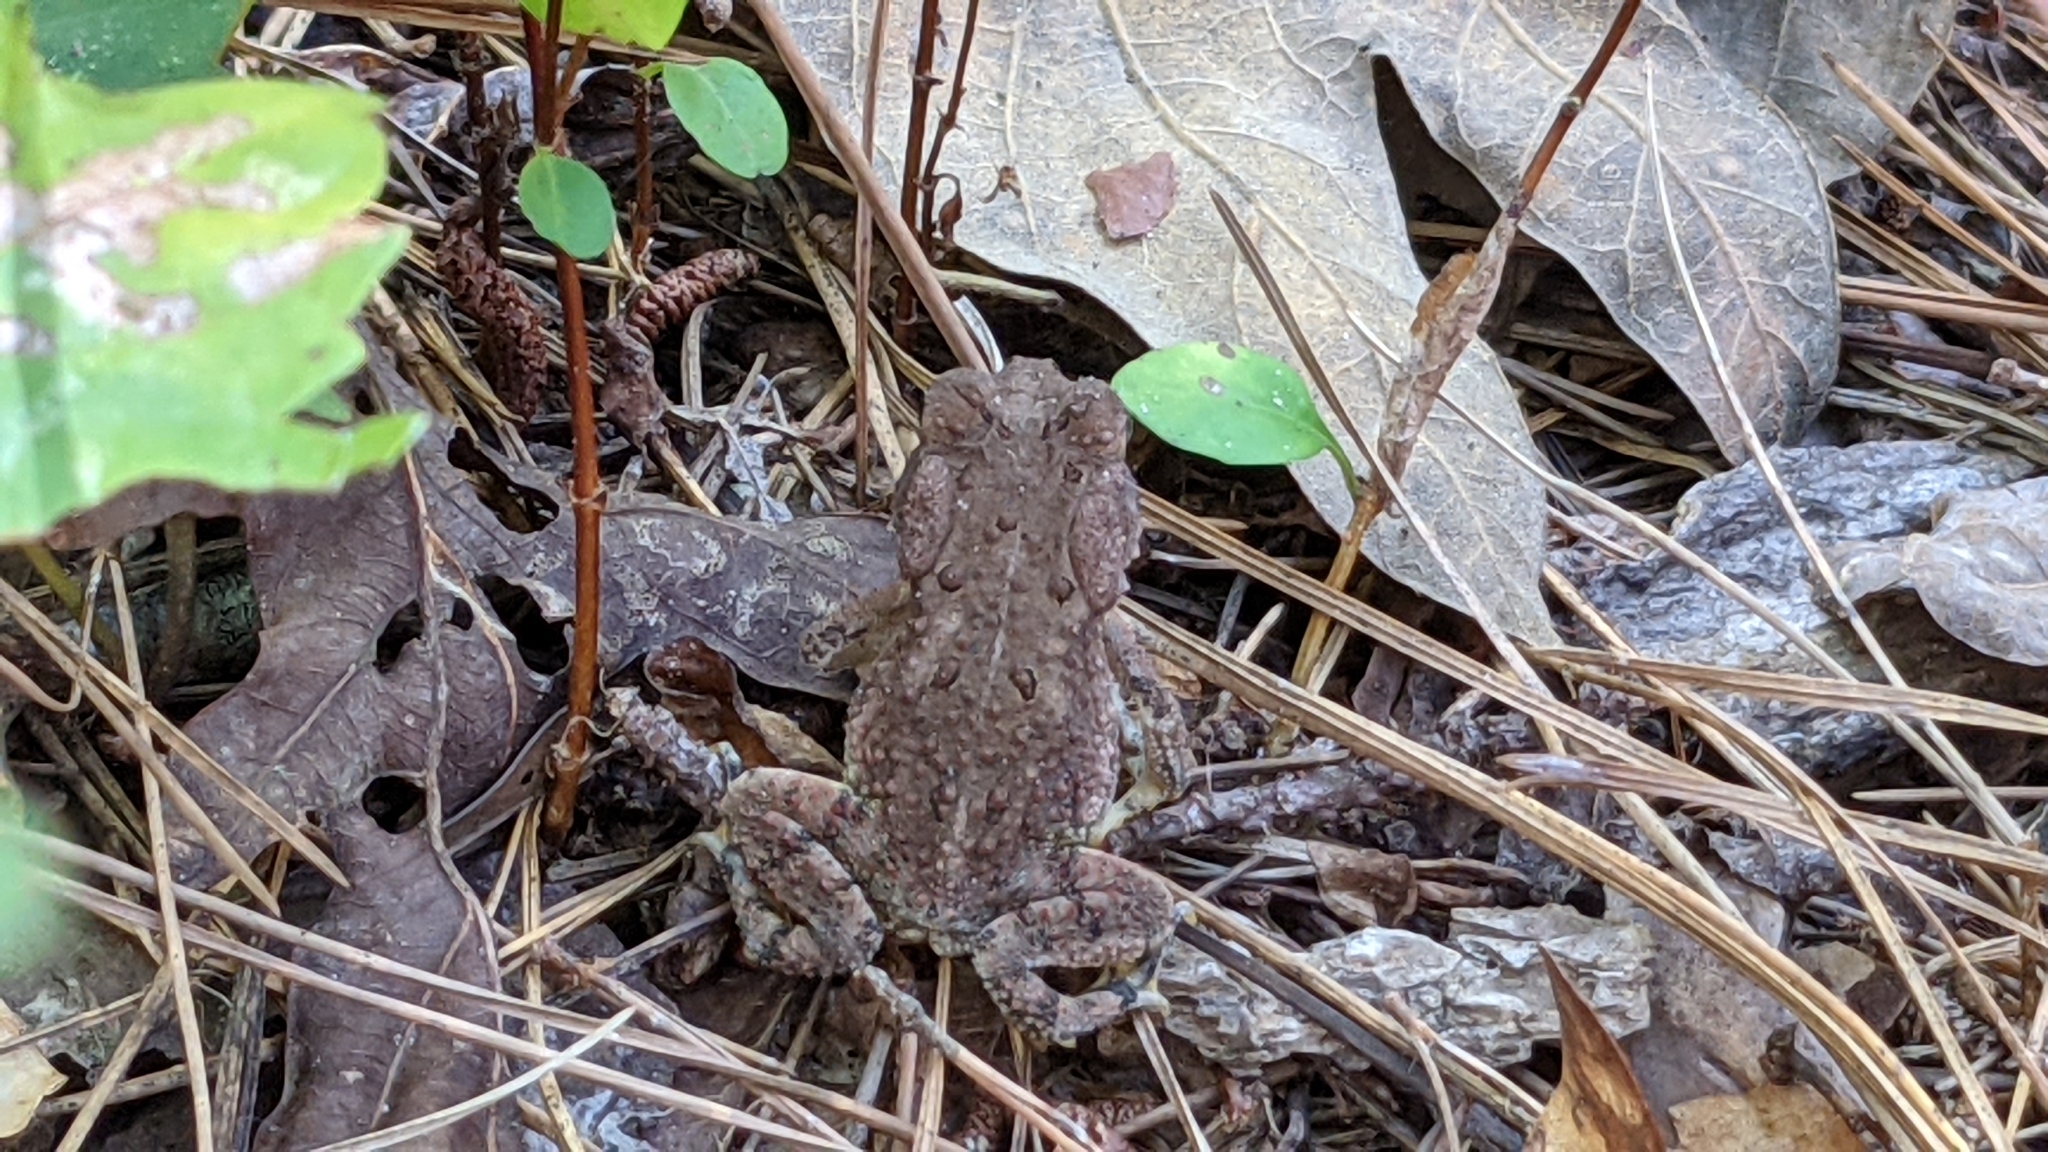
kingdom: Animalia
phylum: Chordata
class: Amphibia
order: Anura
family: Bufonidae
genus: Anaxyrus
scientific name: Anaxyrus fowleri
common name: Fowler's toad
